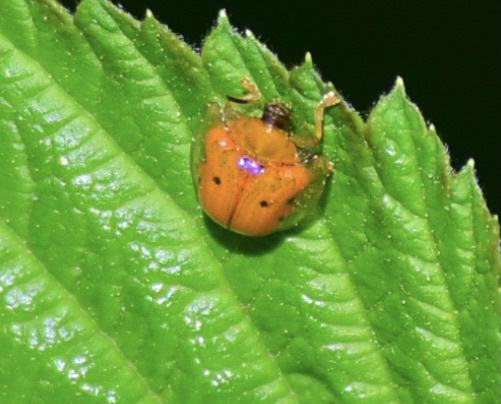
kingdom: Animalia
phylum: Arthropoda
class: Insecta
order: Coleoptera
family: Chrysomelidae
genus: Charidotella
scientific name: Charidotella sexpunctata
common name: Golden tortoise beetle
